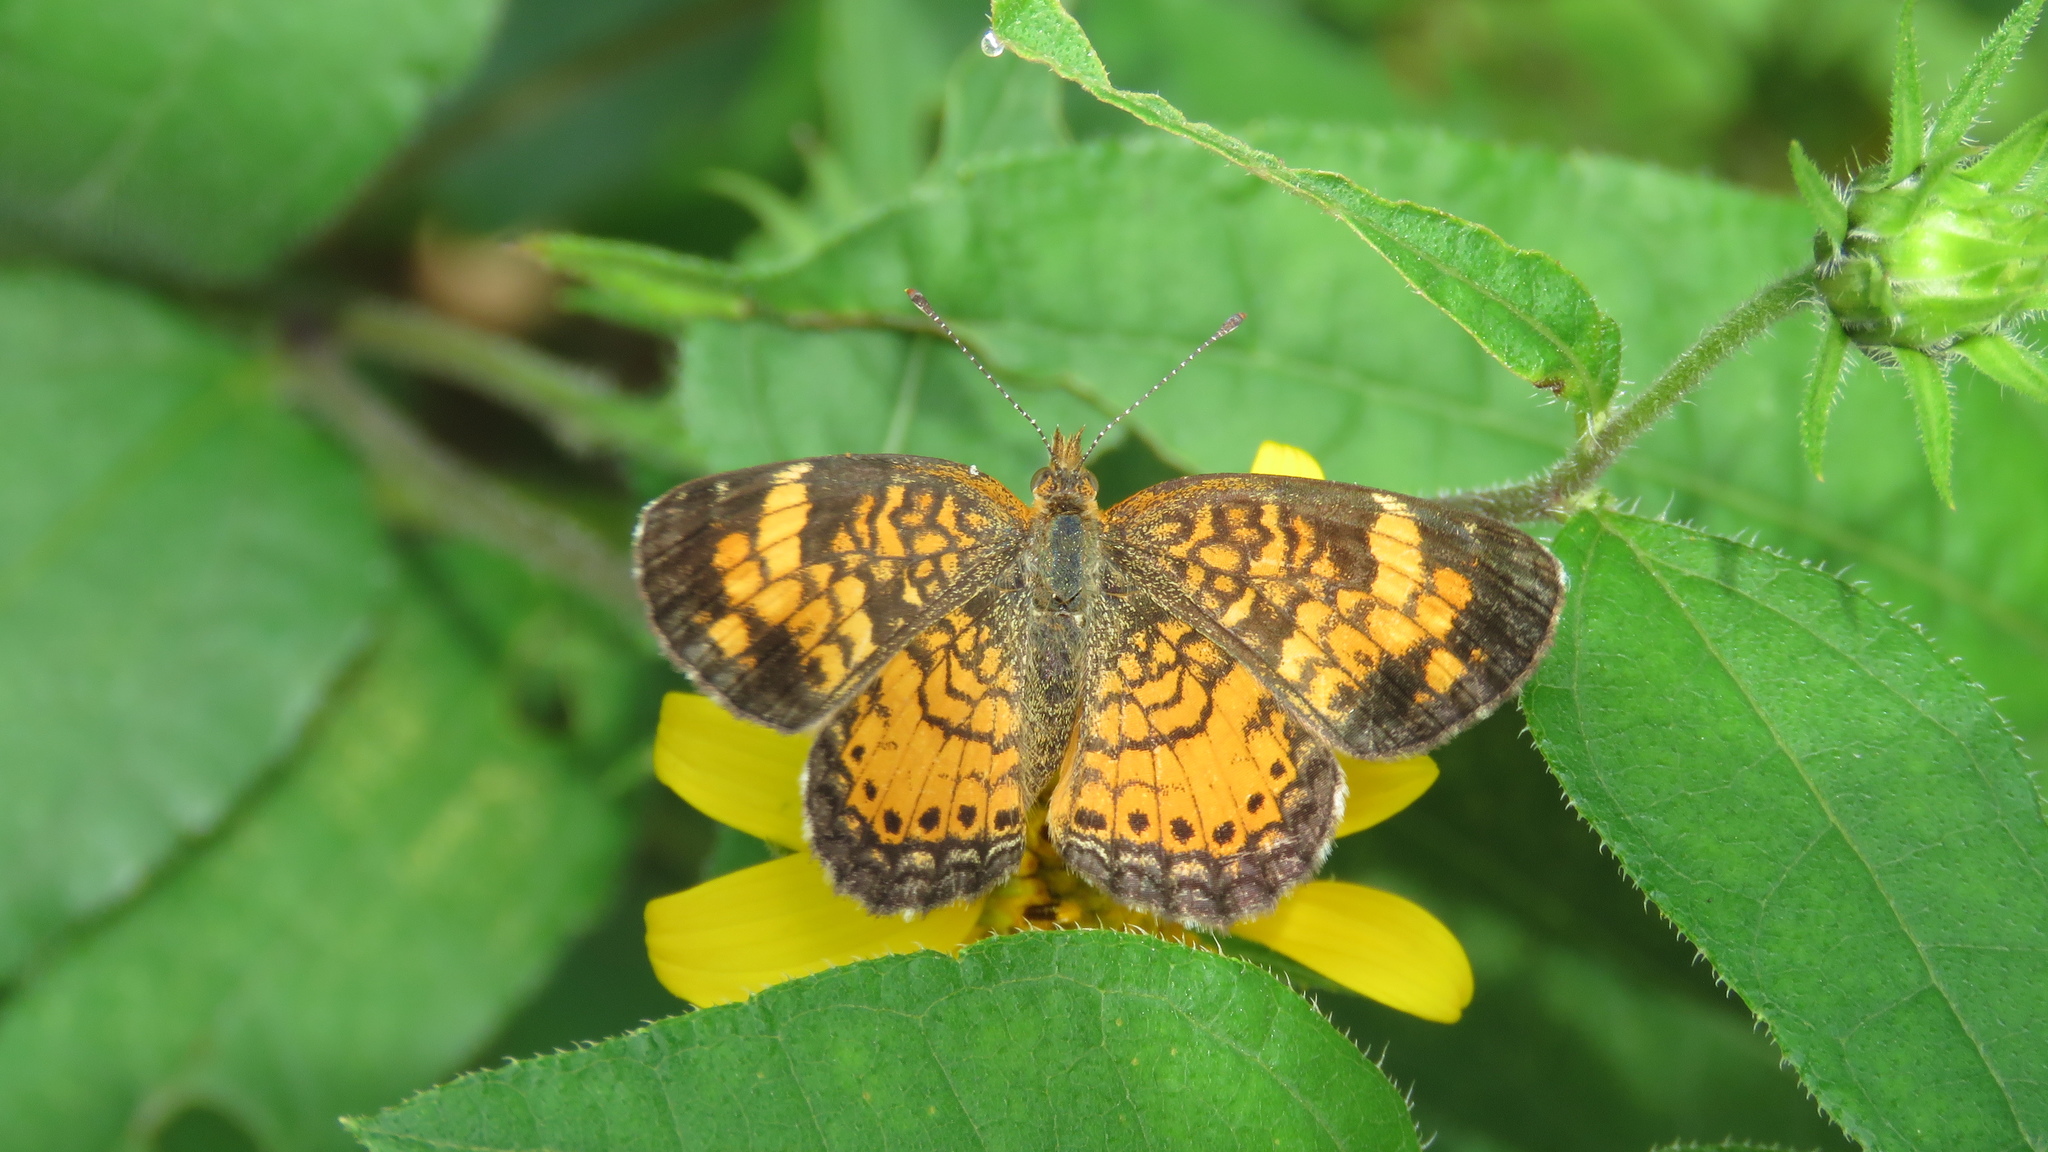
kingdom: Animalia
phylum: Arthropoda
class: Insecta
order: Lepidoptera
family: Nymphalidae
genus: Phyciodes
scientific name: Phyciodes tharos
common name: Pearl crescent
